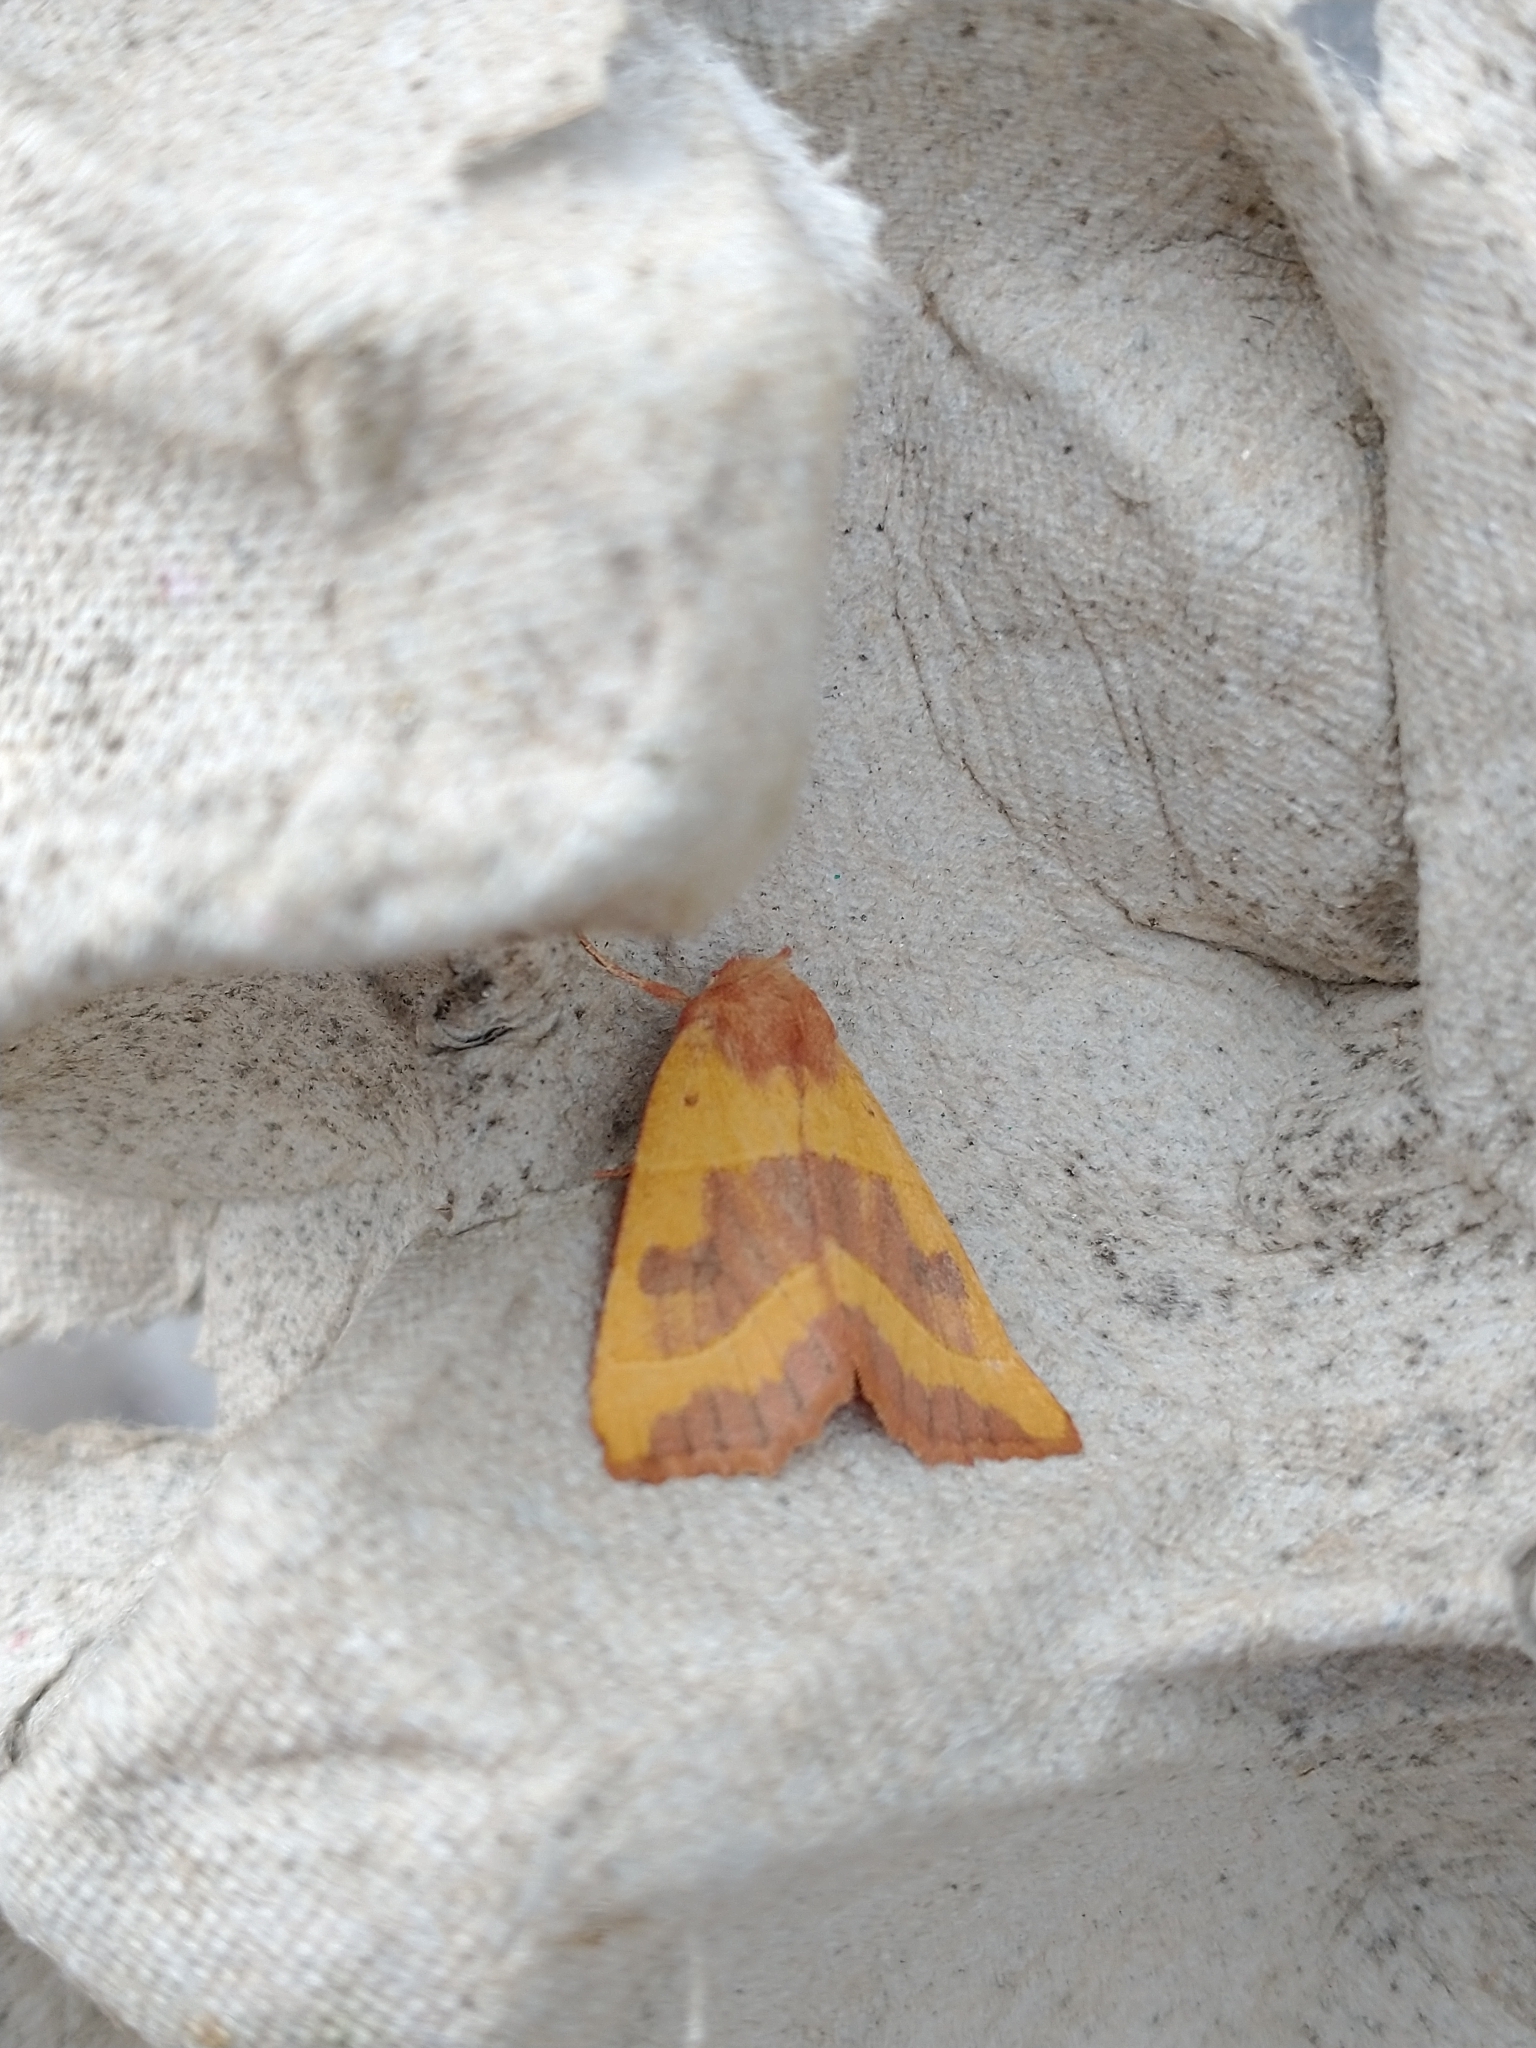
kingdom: Animalia
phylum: Arthropoda
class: Insecta
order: Lepidoptera
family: Noctuidae
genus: Atethmia
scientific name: Atethmia centrago
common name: Centre-barred sallow
